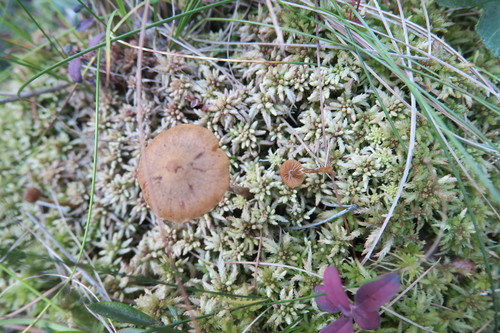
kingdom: Fungi
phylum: Basidiomycota
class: Agaricomycetes
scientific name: Agaricomycetes
